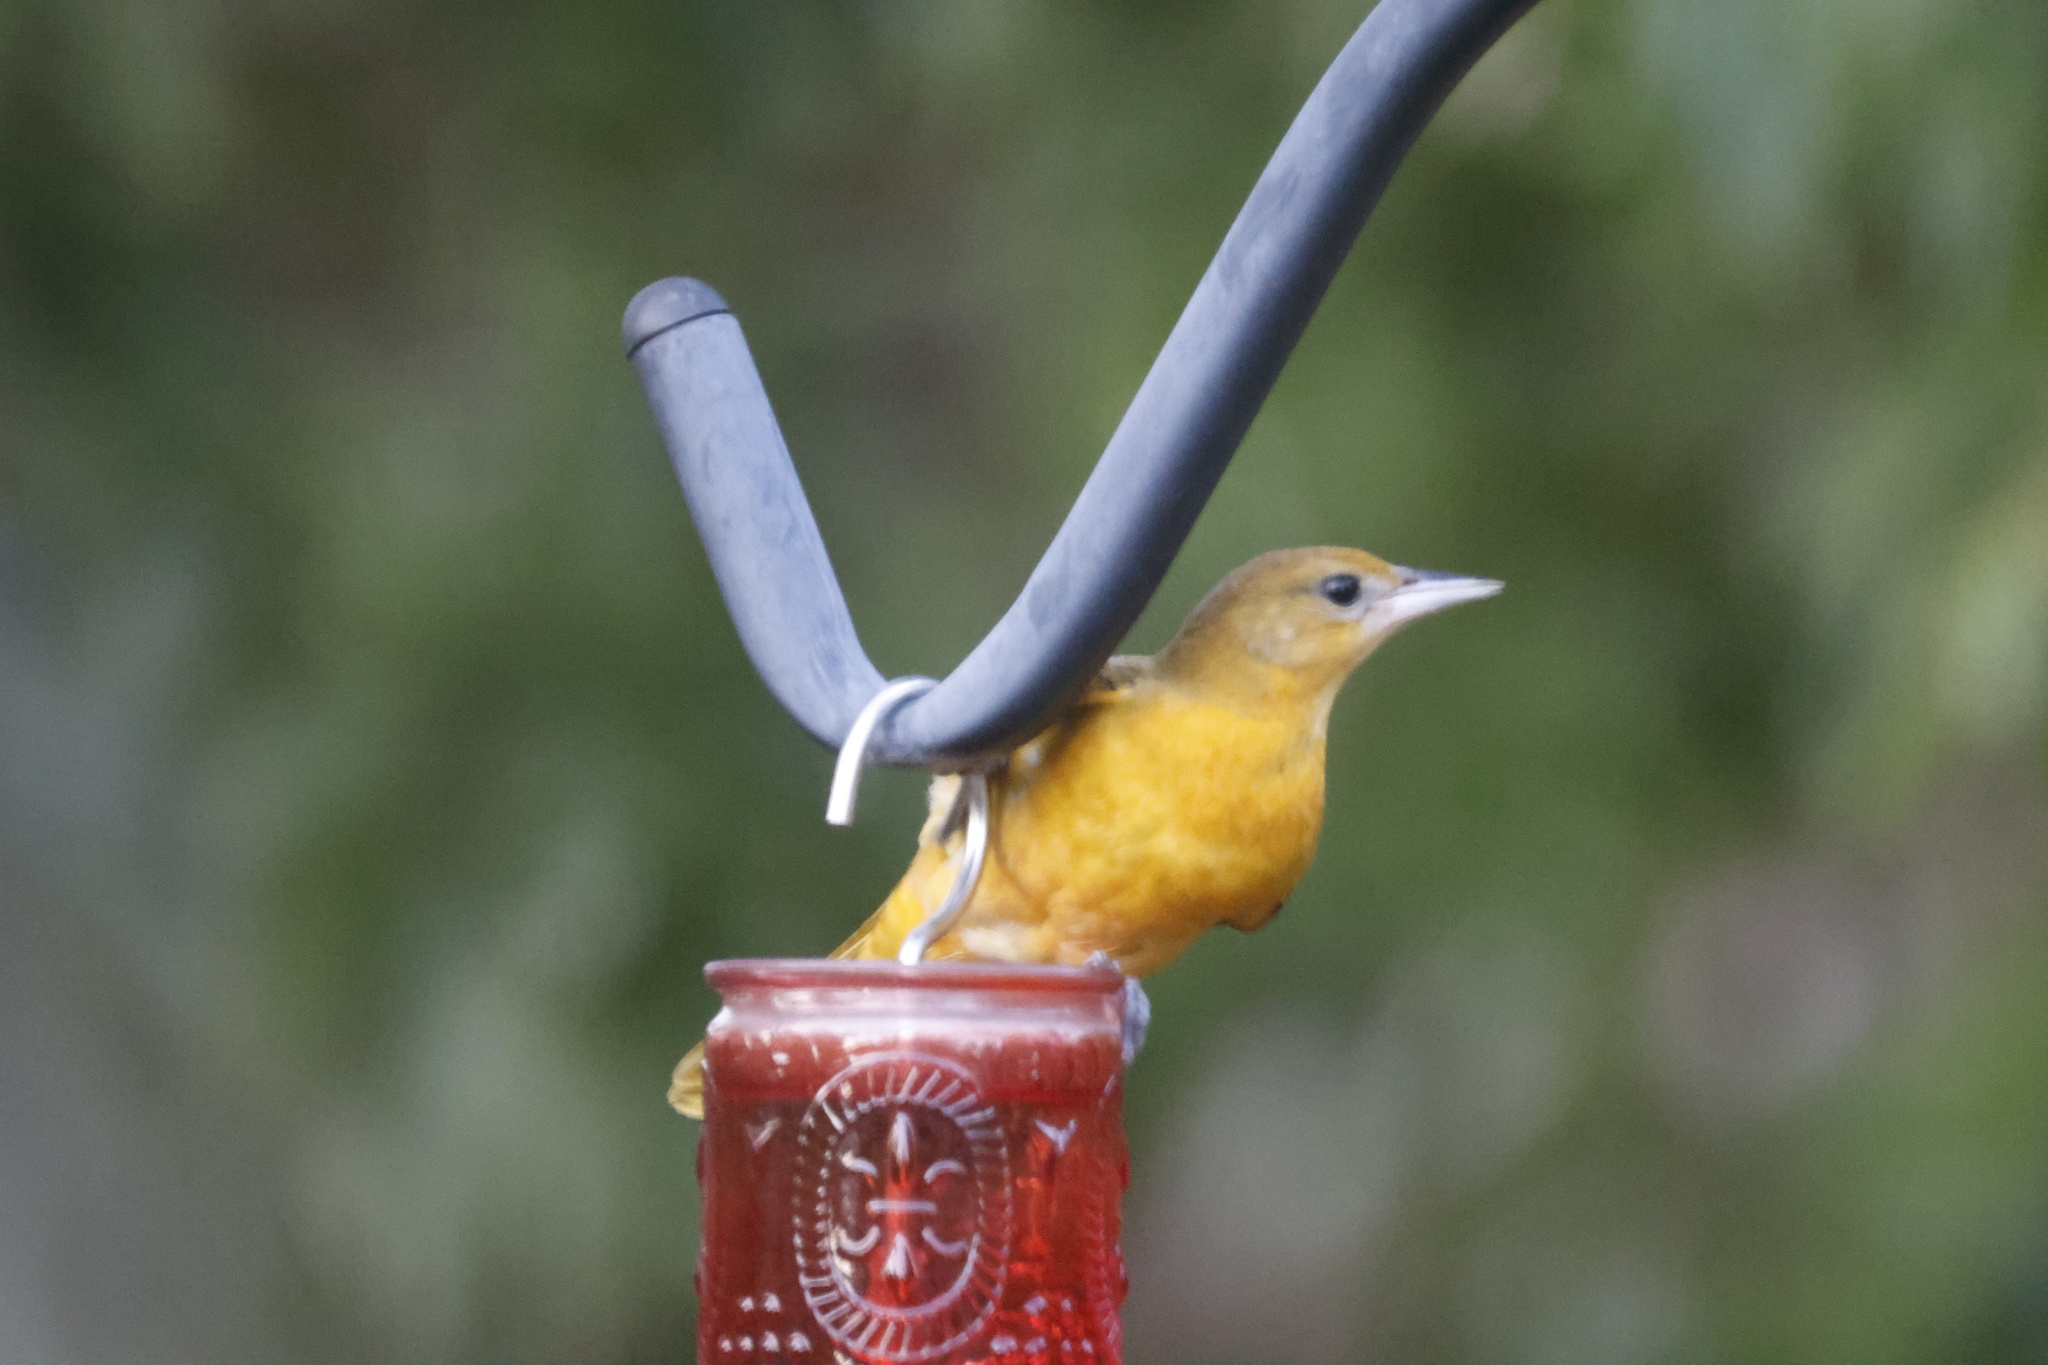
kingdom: Animalia
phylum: Chordata
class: Aves
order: Passeriformes
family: Icteridae
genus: Icterus
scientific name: Icterus galbula
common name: Baltimore oriole
